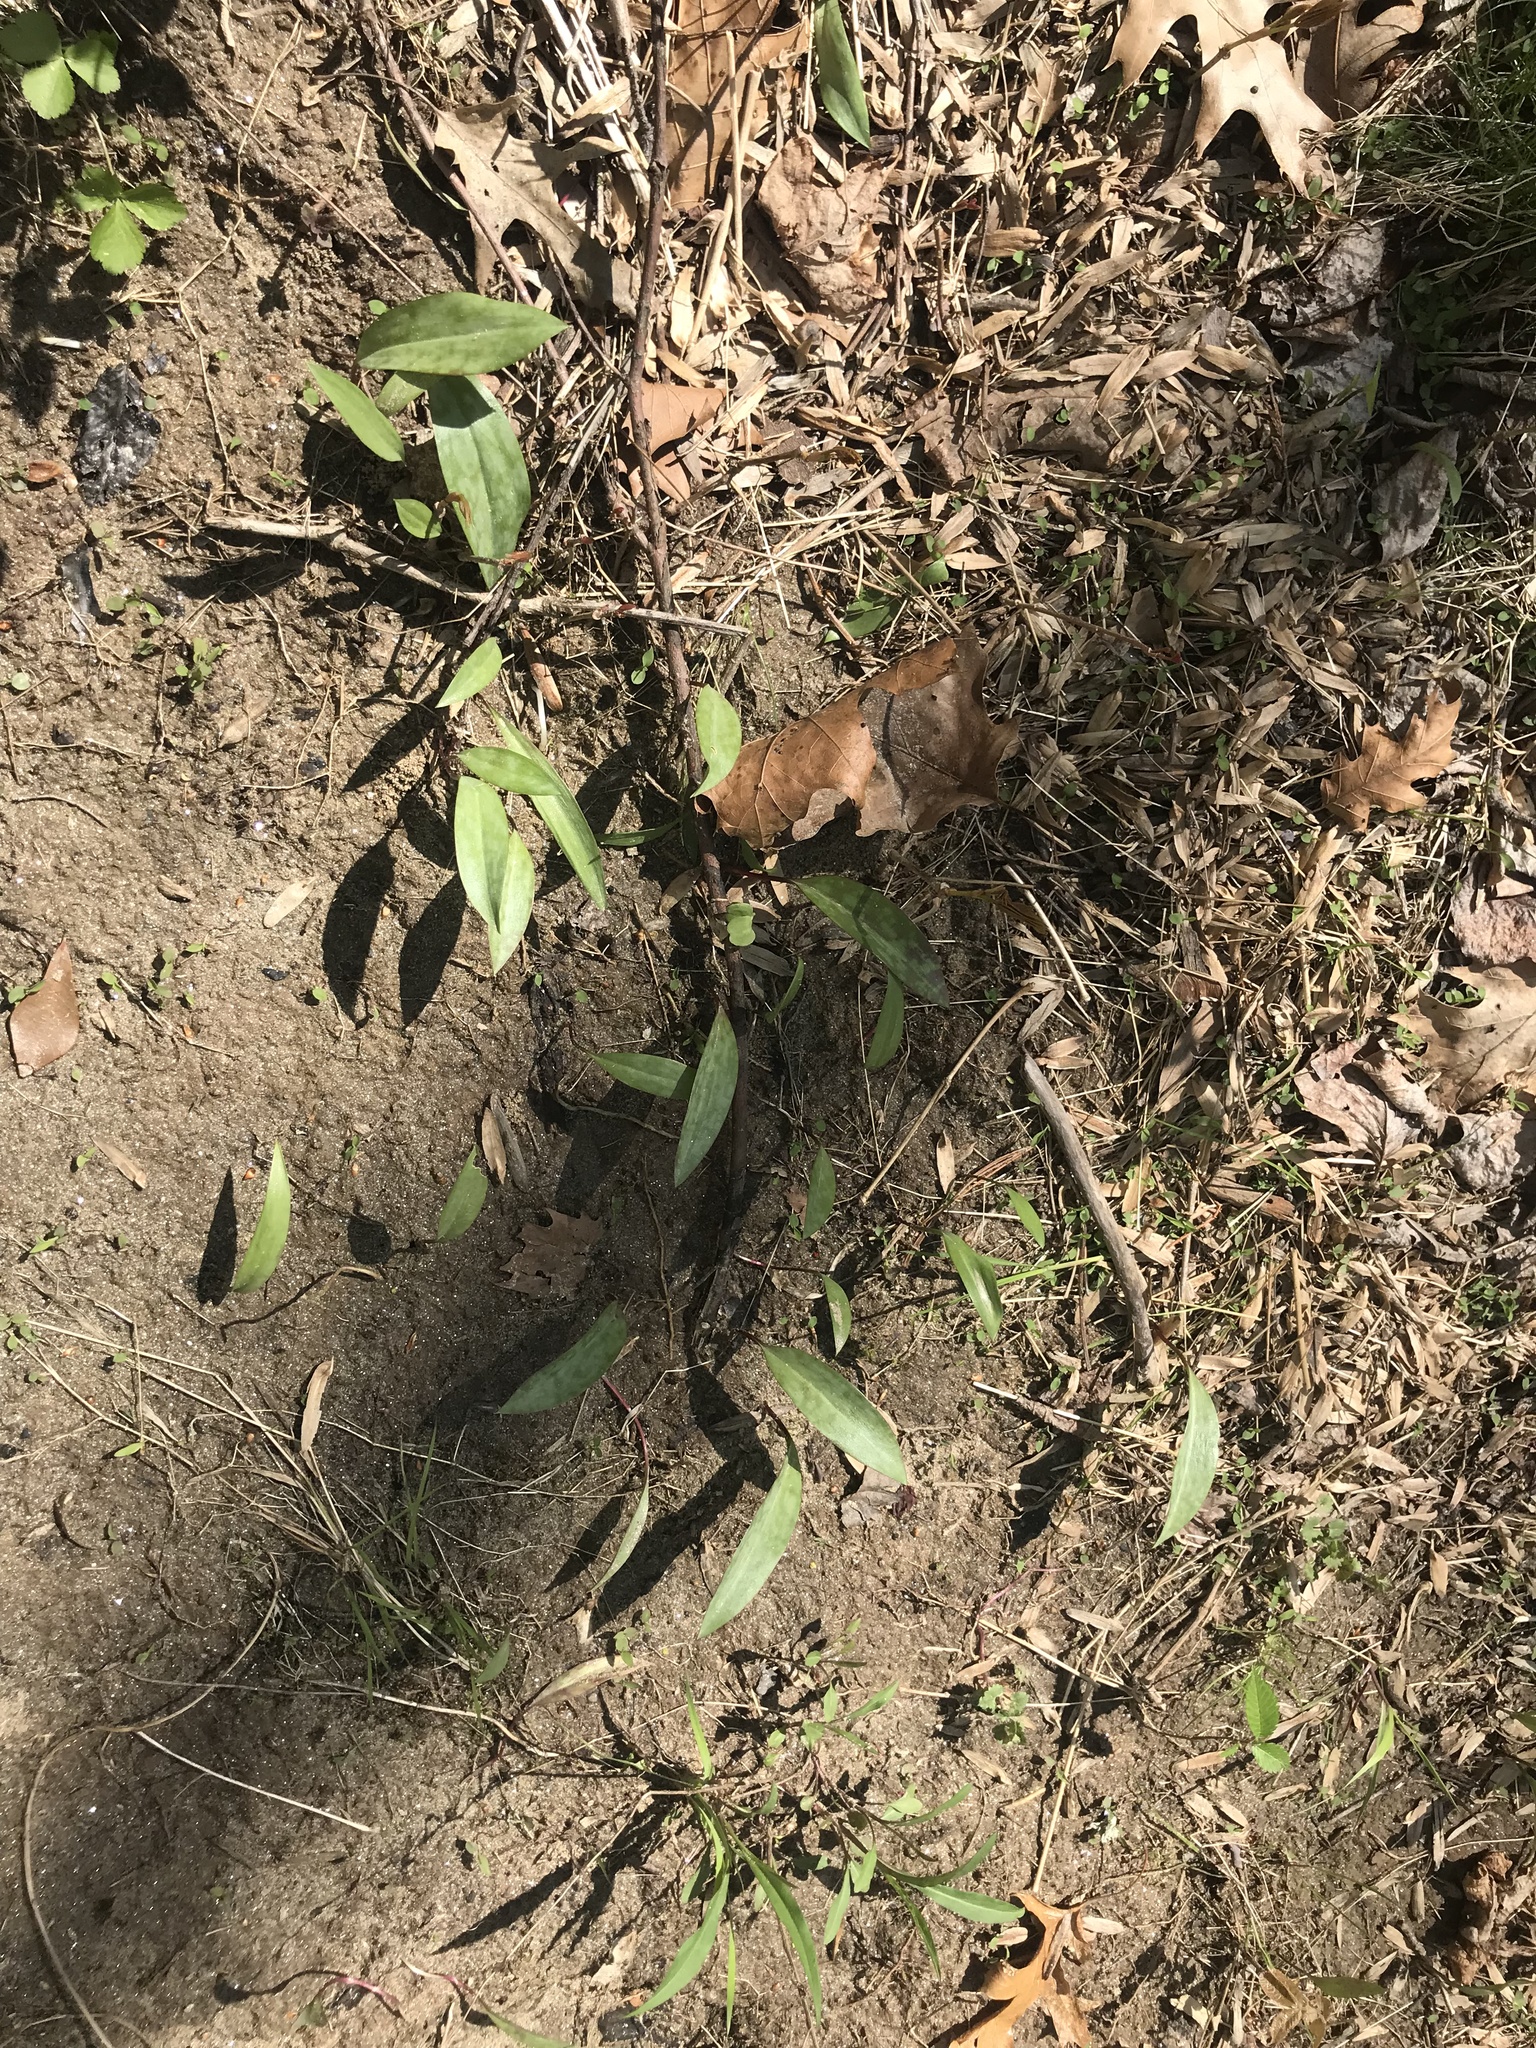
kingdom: Plantae
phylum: Tracheophyta
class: Liliopsida
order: Liliales
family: Liliaceae
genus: Erythronium
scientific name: Erythronium americanum
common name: Yellow adder's-tongue
